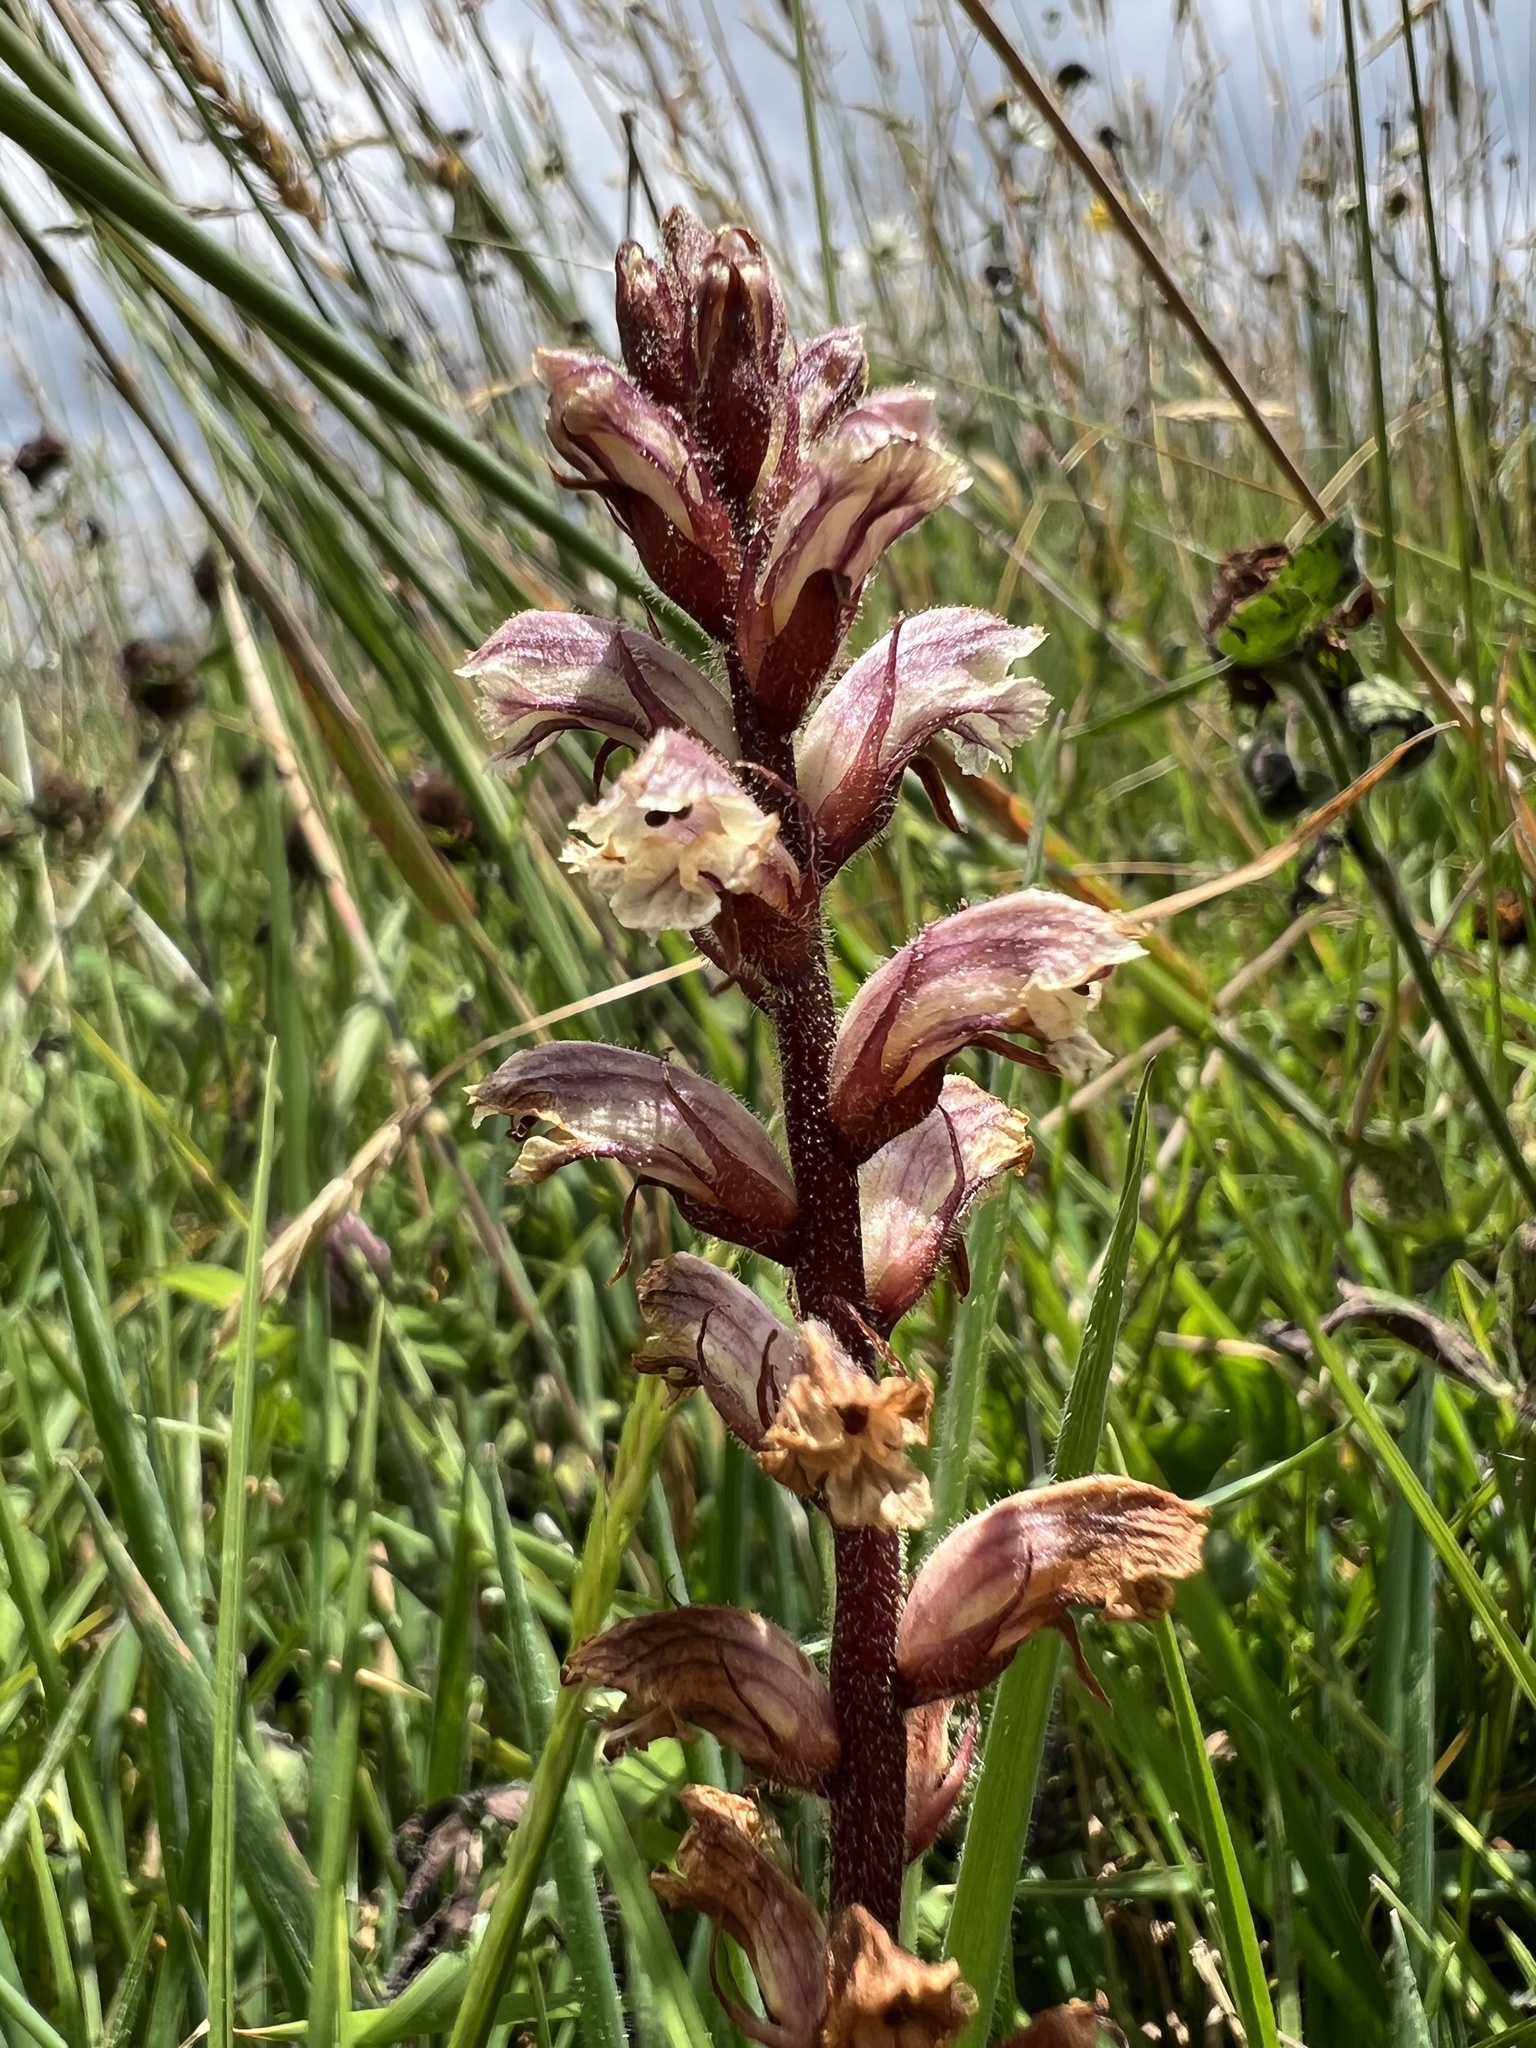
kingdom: Plantae
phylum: Tracheophyta
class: Magnoliopsida
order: Lamiales
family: Orobanchaceae
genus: Orobanche
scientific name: Orobanche minor
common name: Common broomrape
